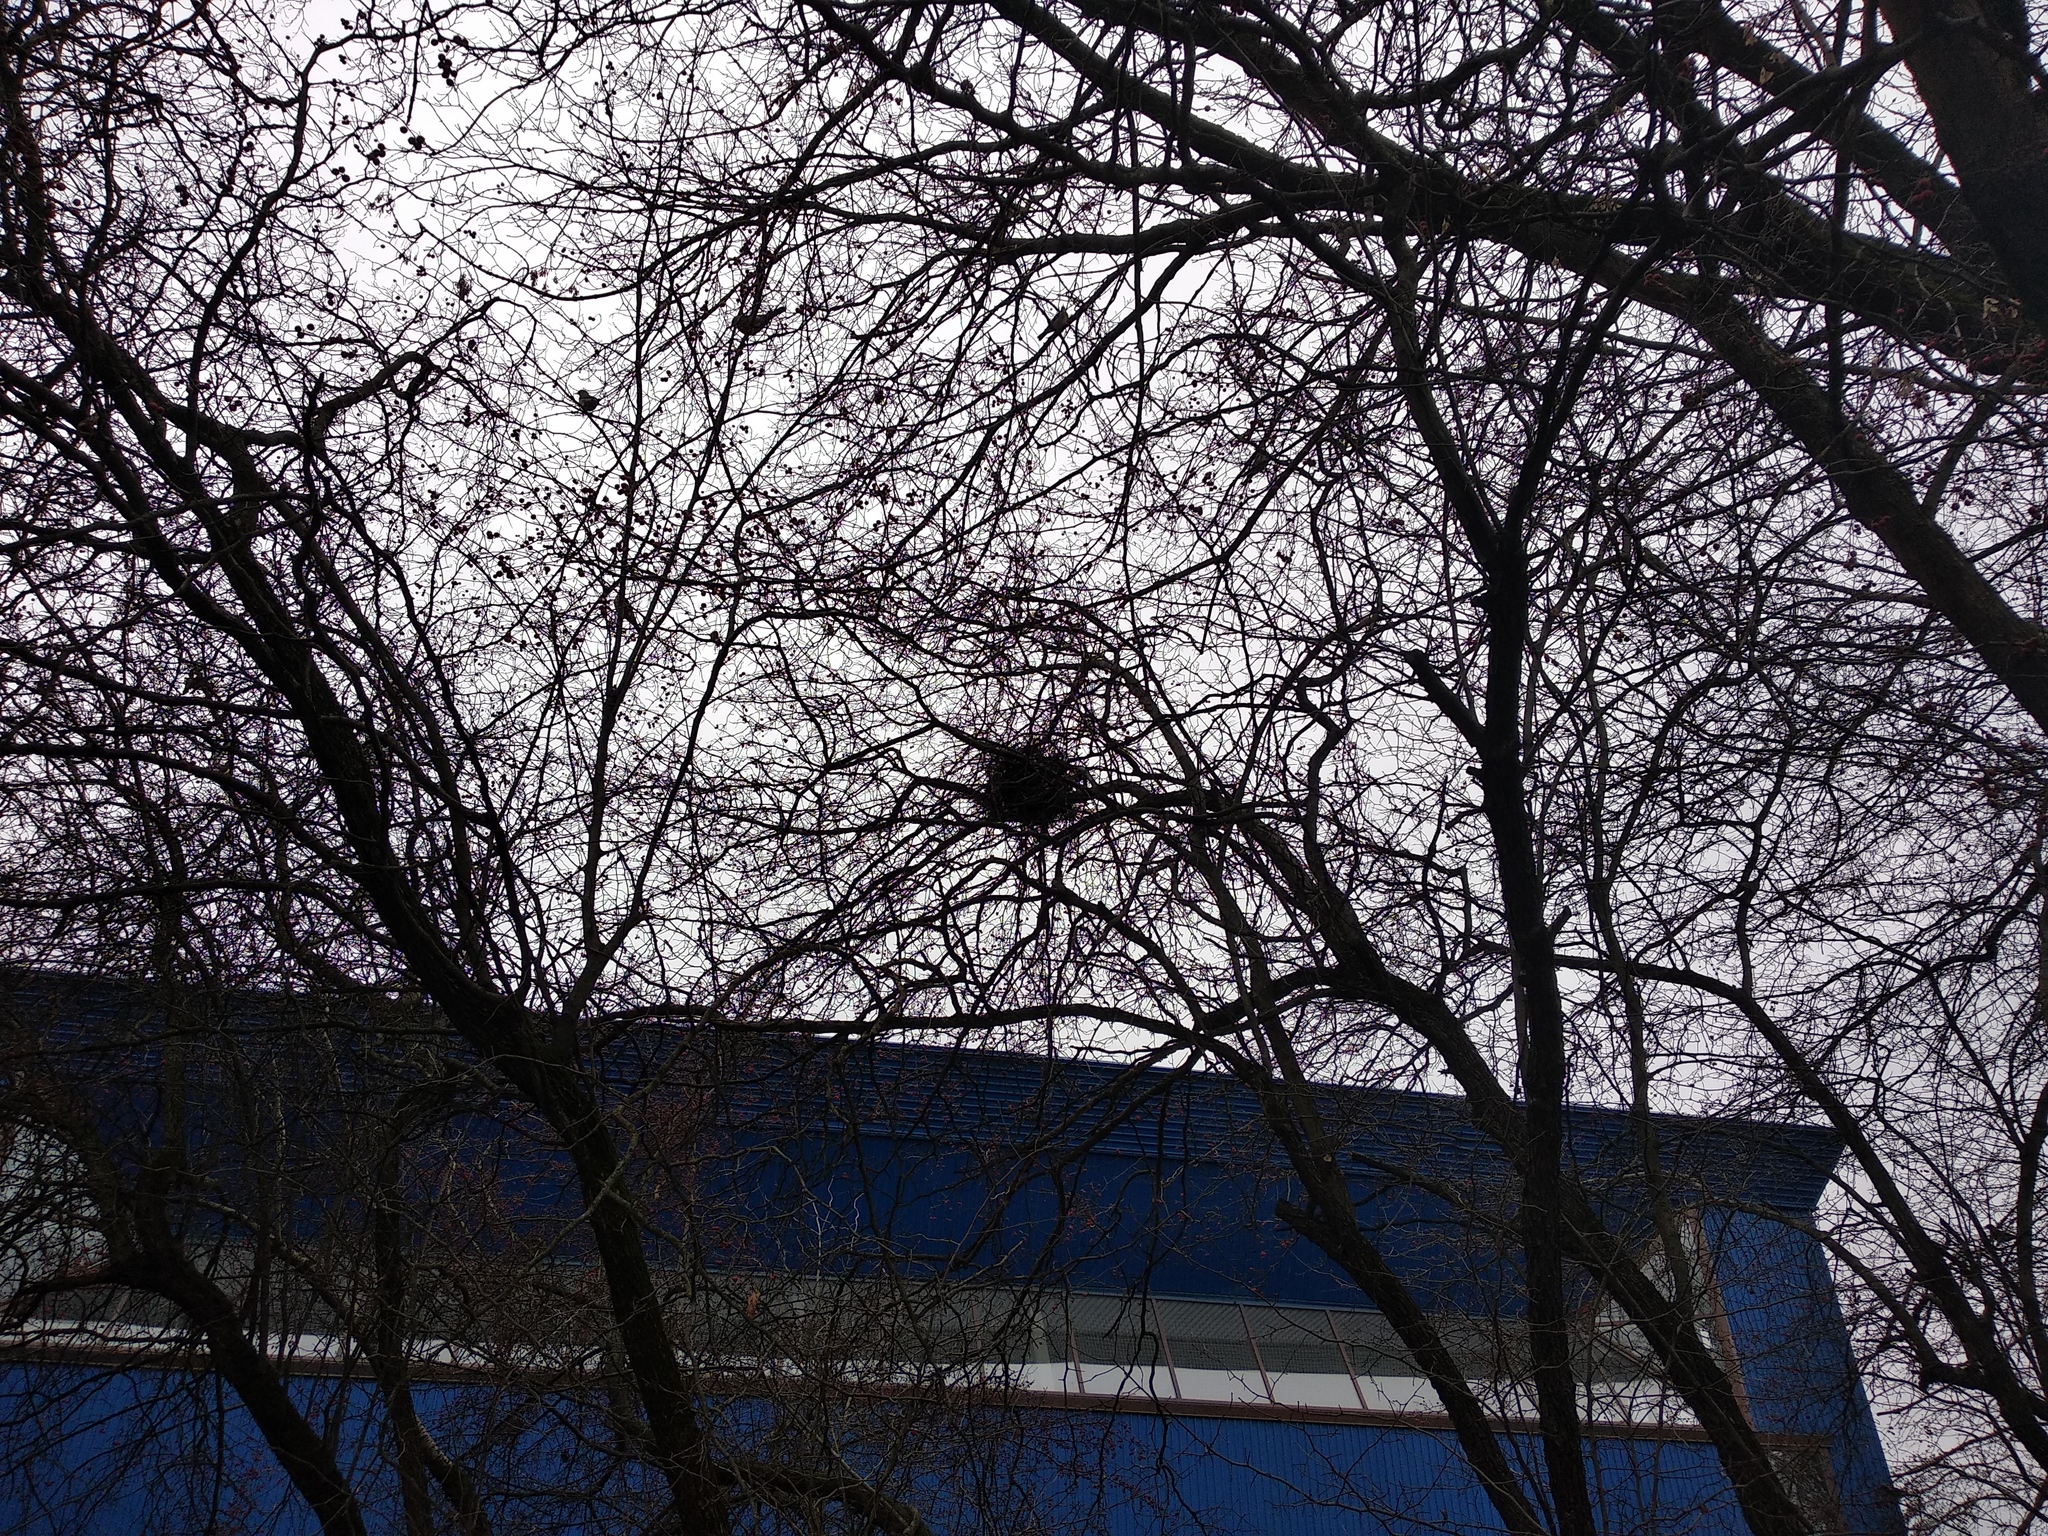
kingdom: Animalia
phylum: Chordata
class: Aves
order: Passeriformes
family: Turdidae
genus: Turdus
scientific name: Turdus pilaris
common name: Fieldfare
